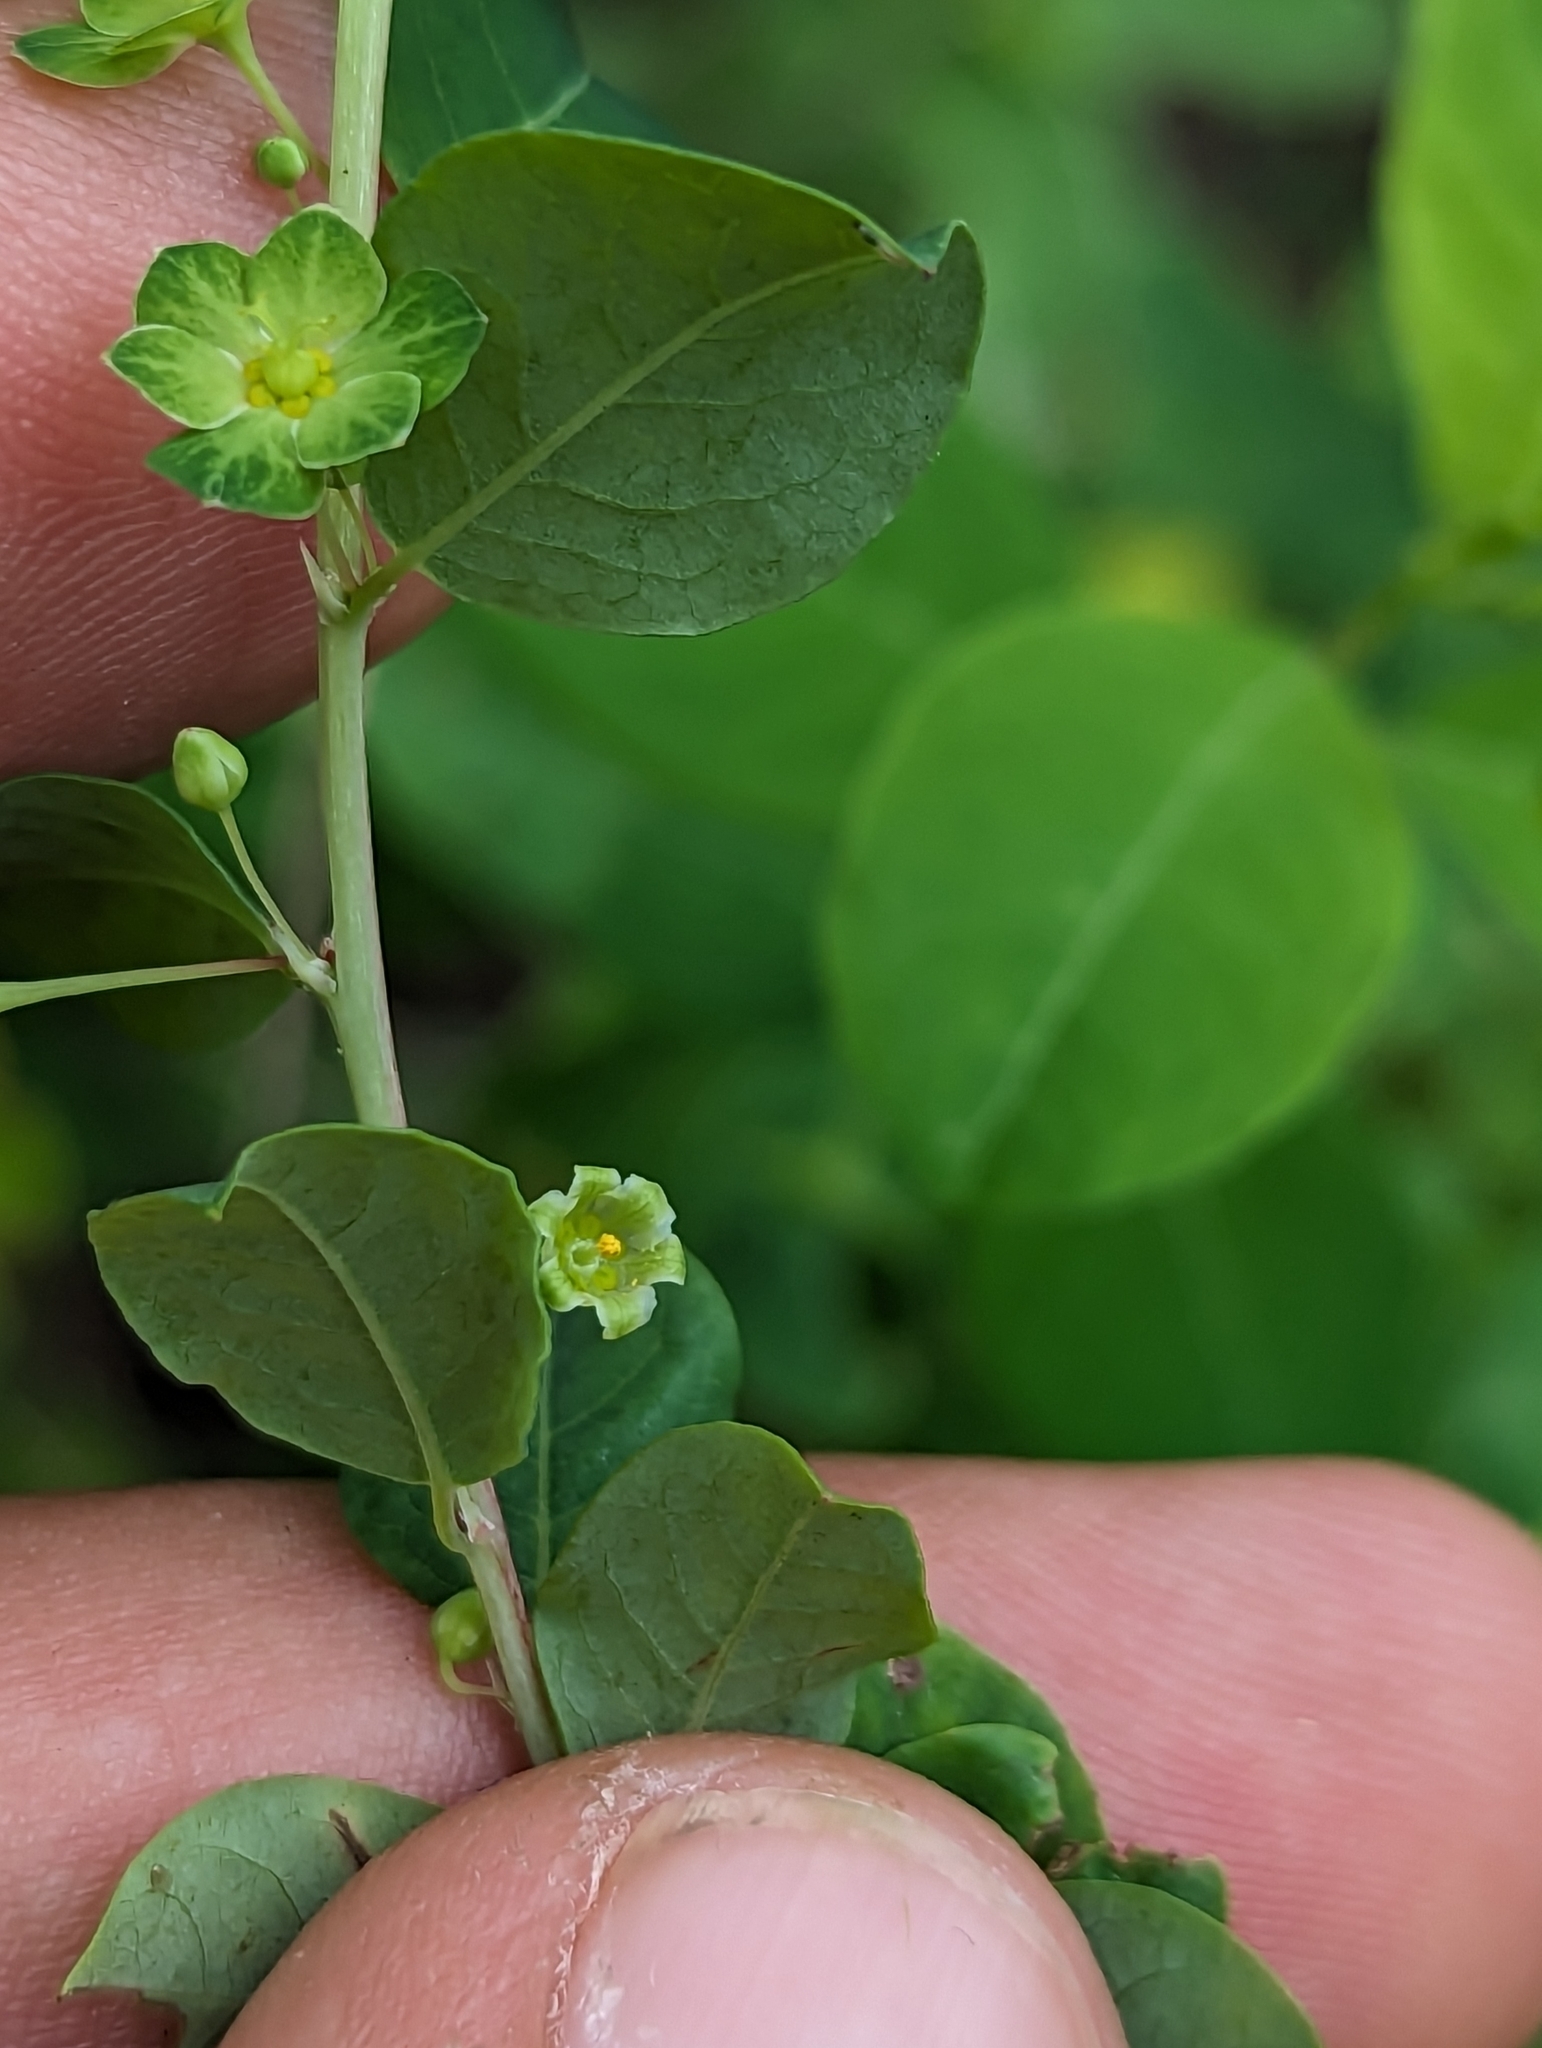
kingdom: Plantae
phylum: Tracheophyta
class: Magnoliopsida
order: Malpighiales
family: Phyllanthaceae
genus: Phyllanthus
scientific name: Phyllanthus gypsicola
